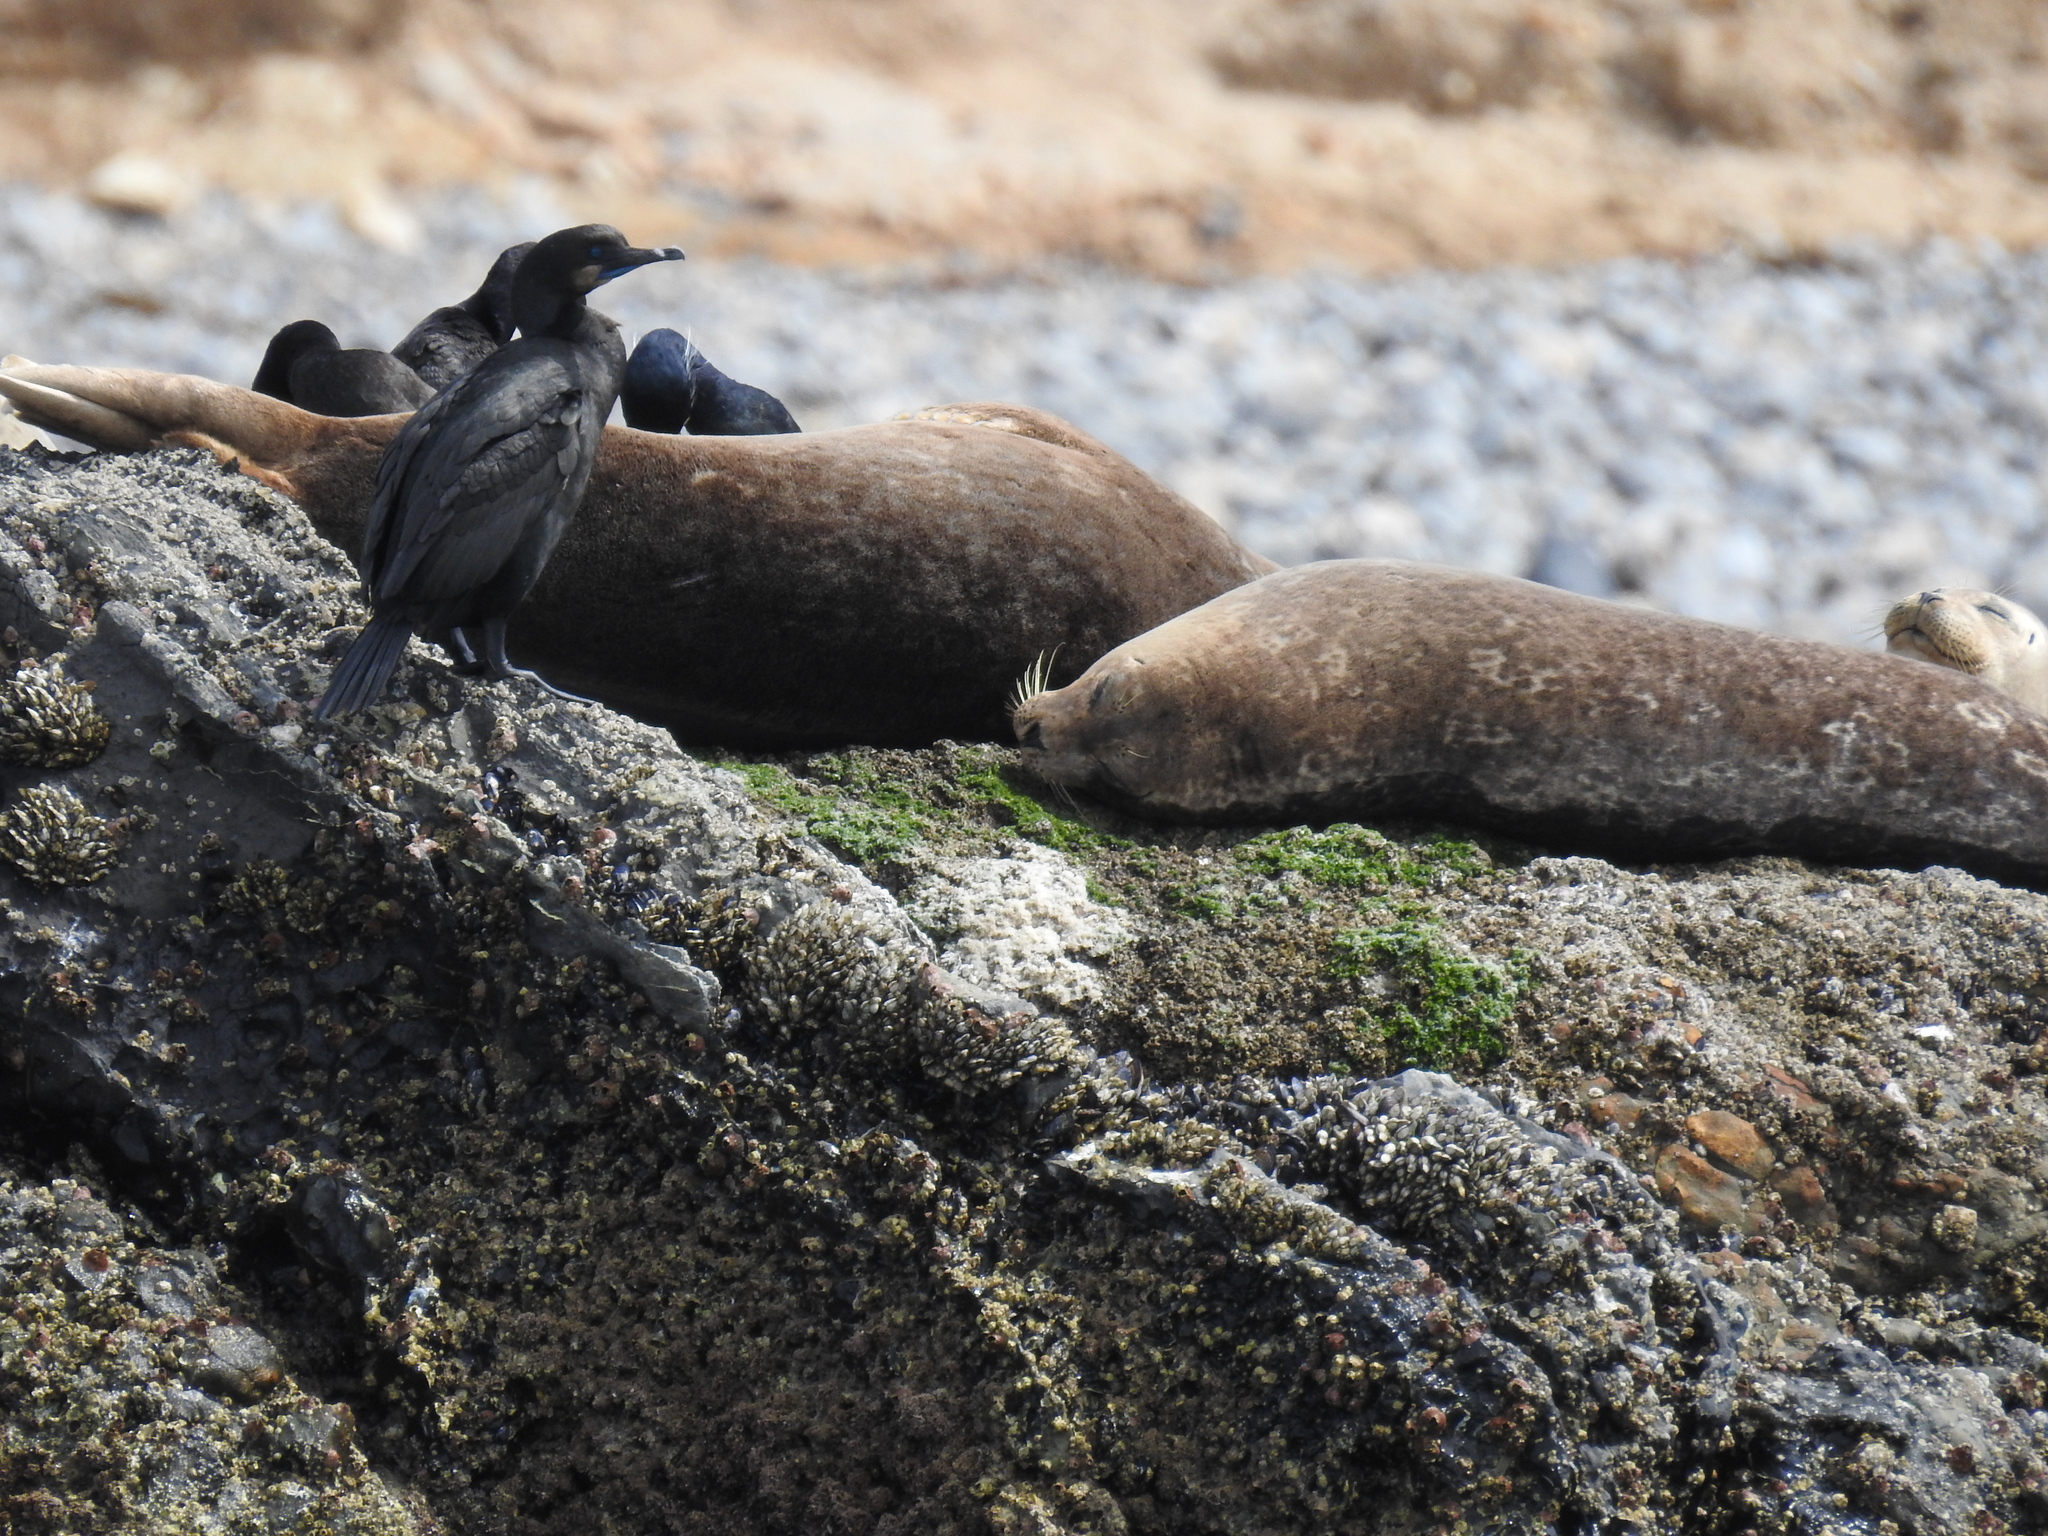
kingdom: Animalia
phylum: Chordata
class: Aves
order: Suliformes
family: Phalacrocoracidae
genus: Urile
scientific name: Urile penicillatus
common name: Brandt's cormorant
